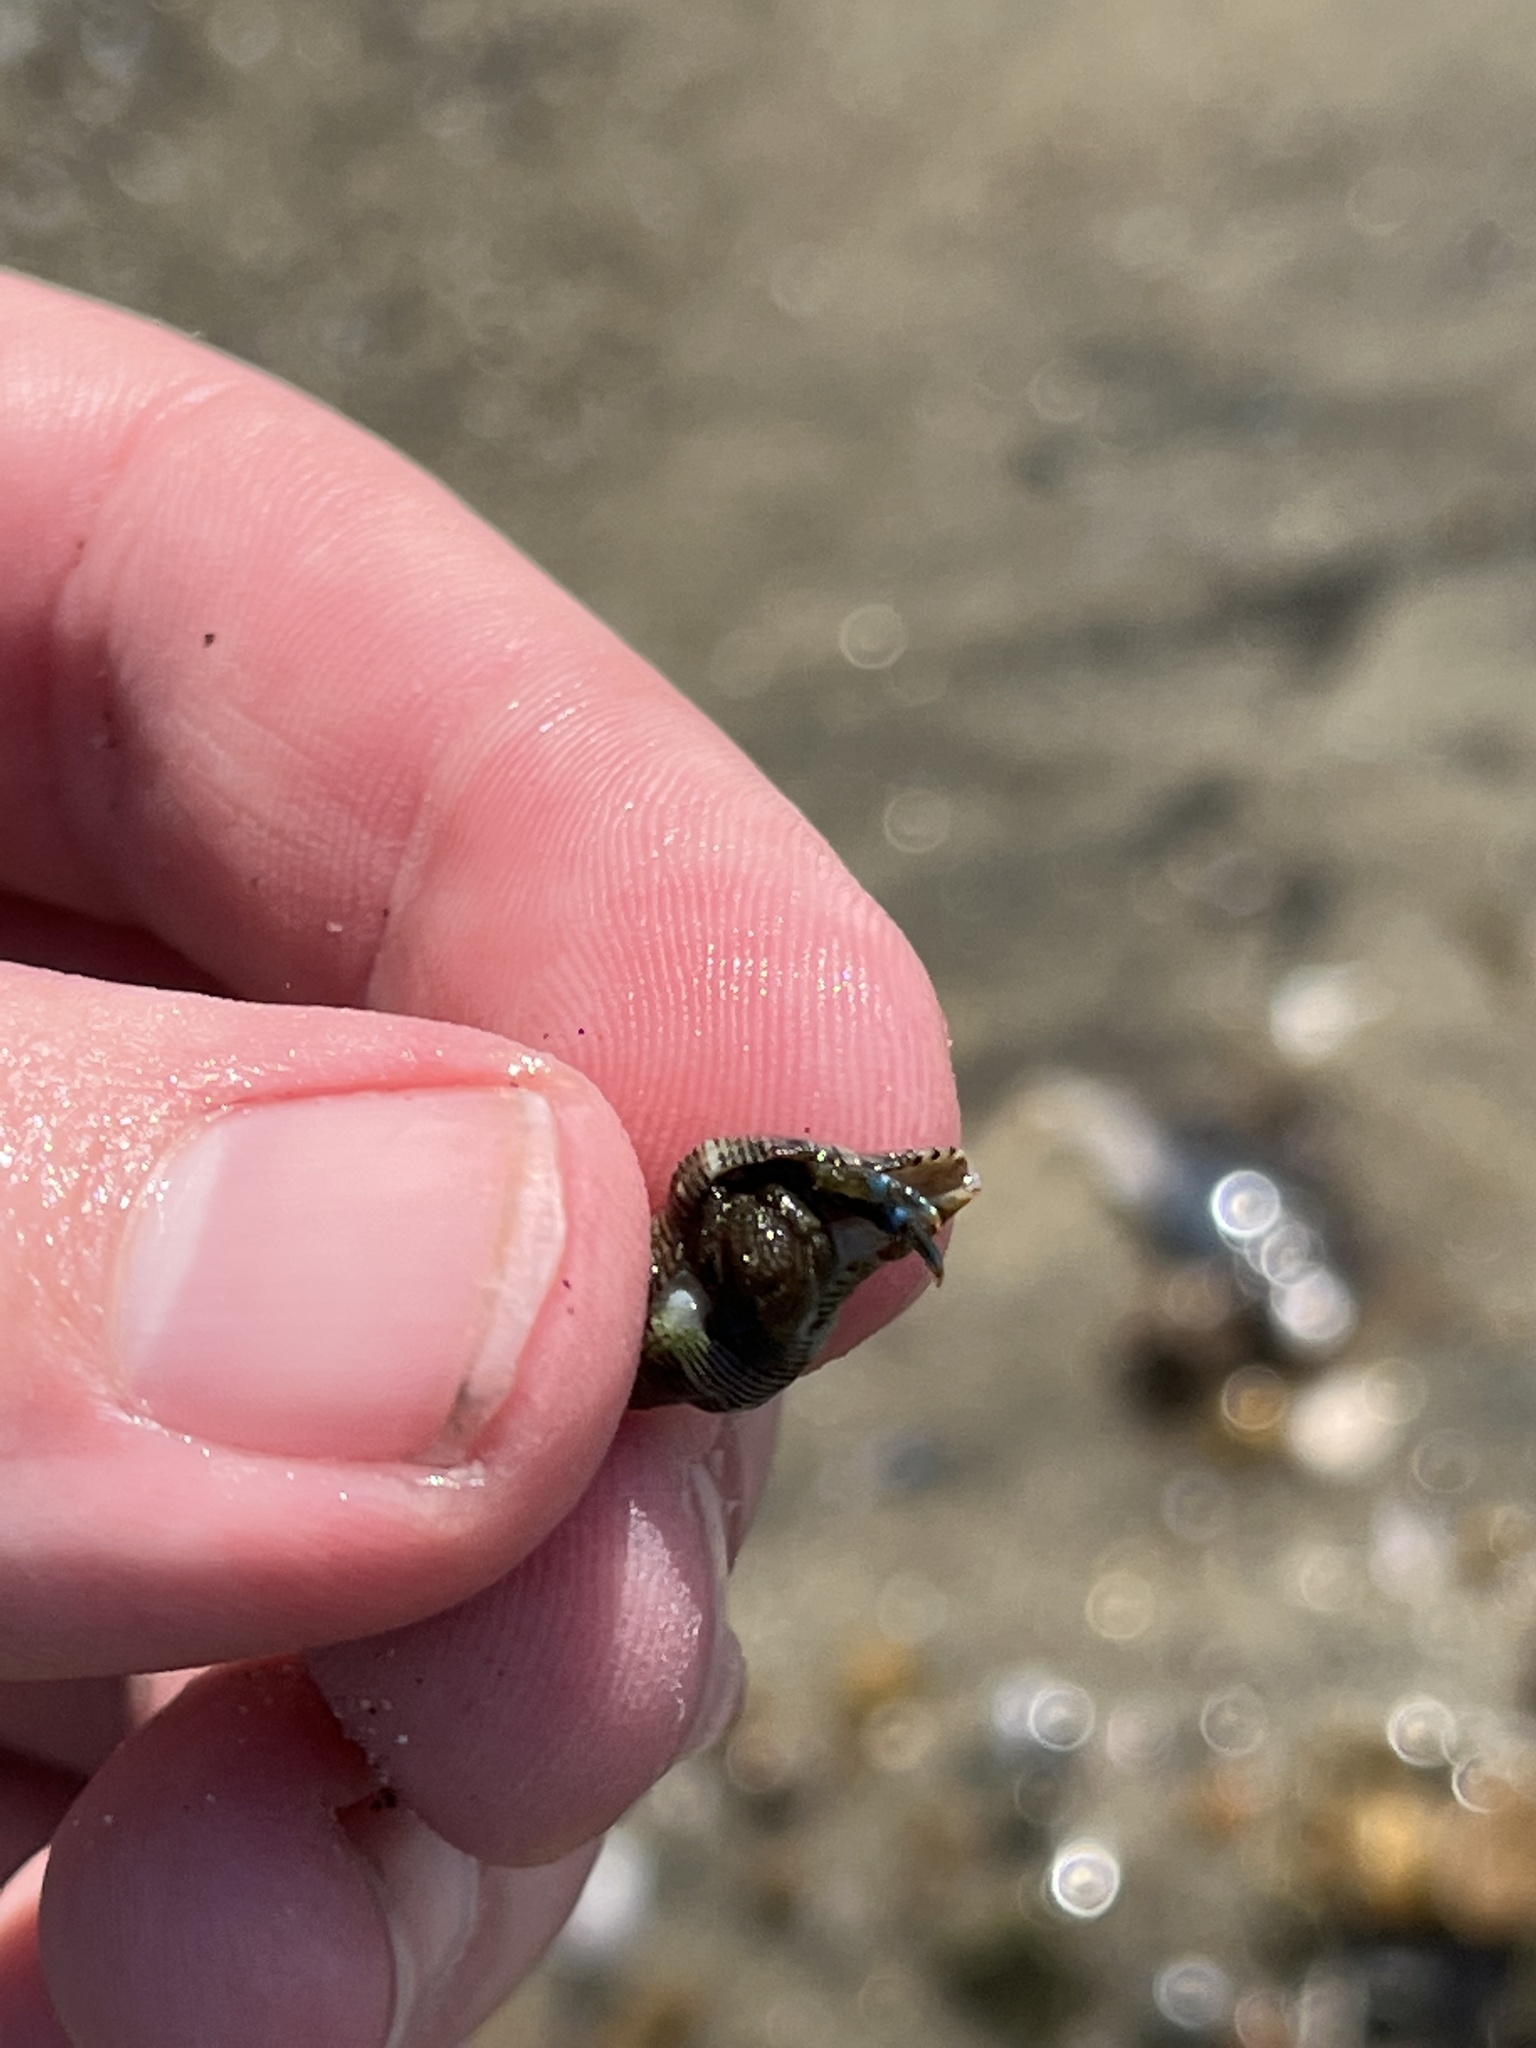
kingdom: Animalia
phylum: Arthropoda
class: Malacostraca
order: Decapoda
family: Paguridae
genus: Pagurus
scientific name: Pagurus samuelis
